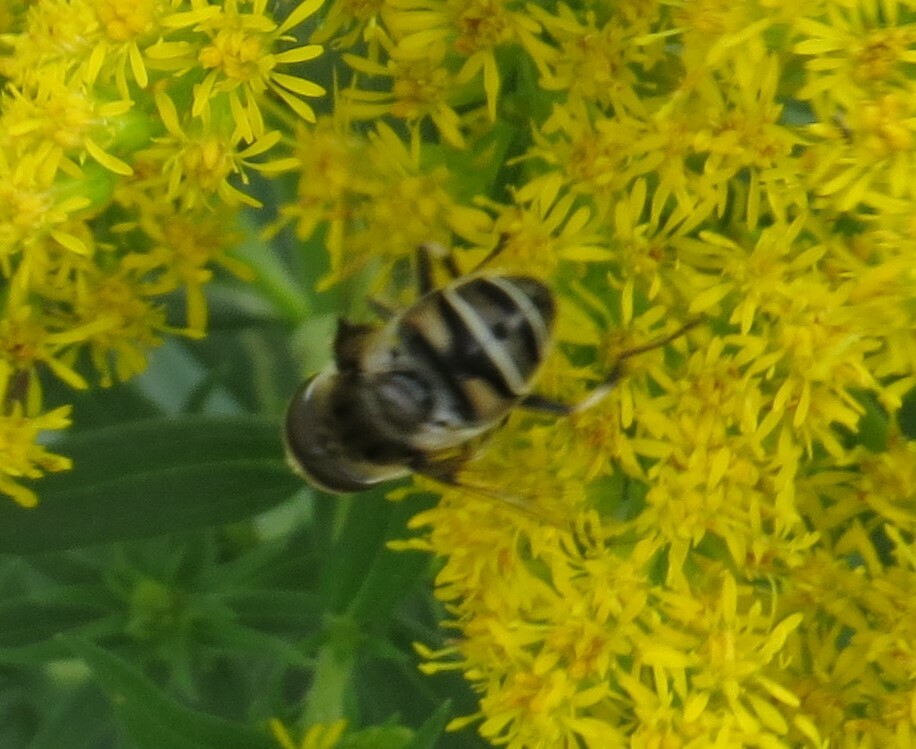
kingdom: Animalia
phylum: Arthropoda
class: Insecta
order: Diptera
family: Syrphidae
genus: Eristalis
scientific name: Eristalis dimidiata
